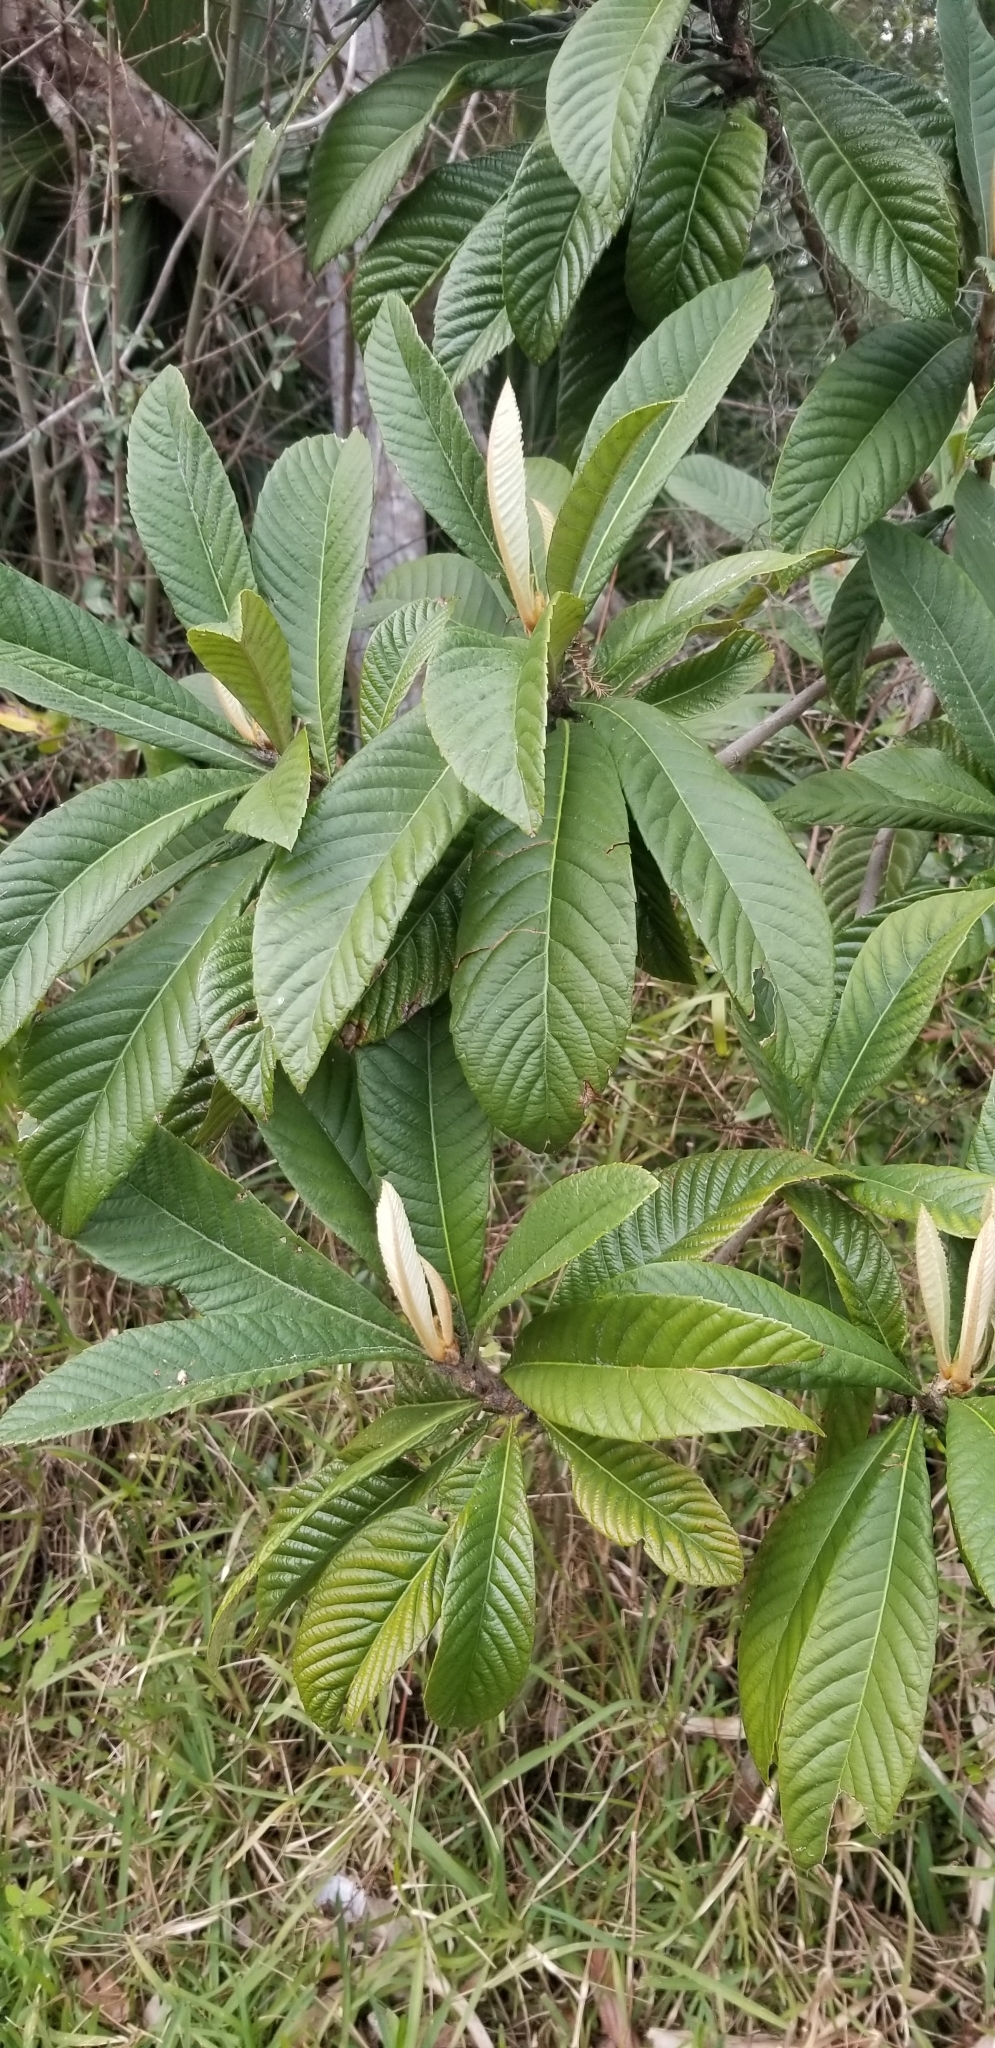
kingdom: Plantae
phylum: Tracheophyta
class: Magnoliopsida
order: Rosales
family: Rosaceae
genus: Rhaphiolepis
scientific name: Rhaphiolepis bibas
